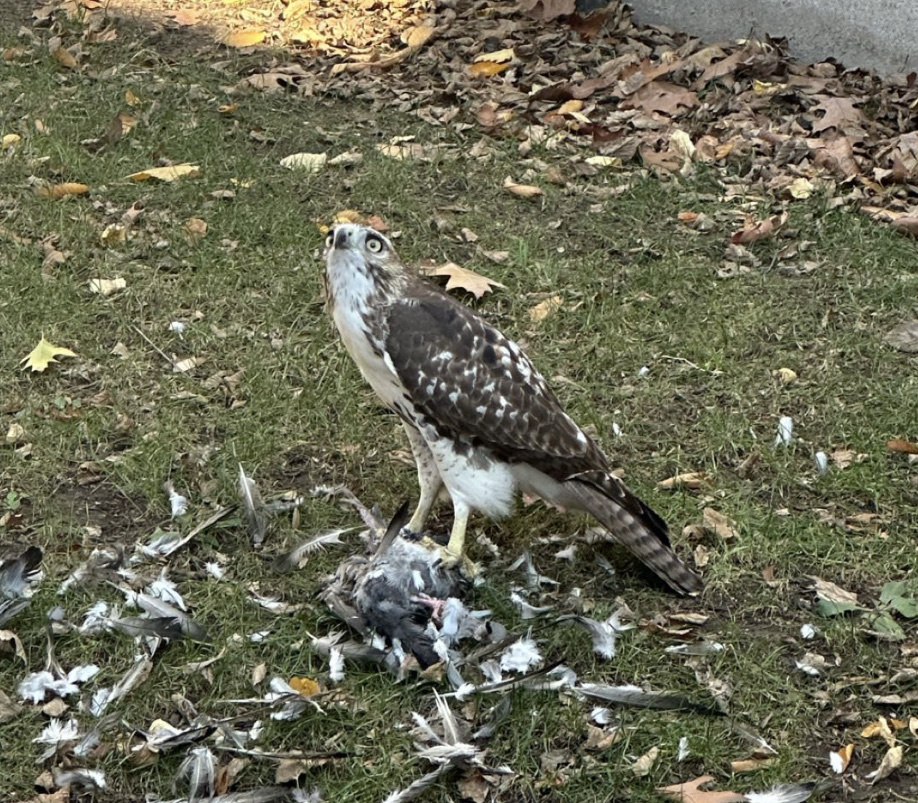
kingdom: Animalia
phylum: Chordata
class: Aves
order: Accipitriformes
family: Accipitridae
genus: Buteo
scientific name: Buteo jamaicensis
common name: Red-tailed hawk
